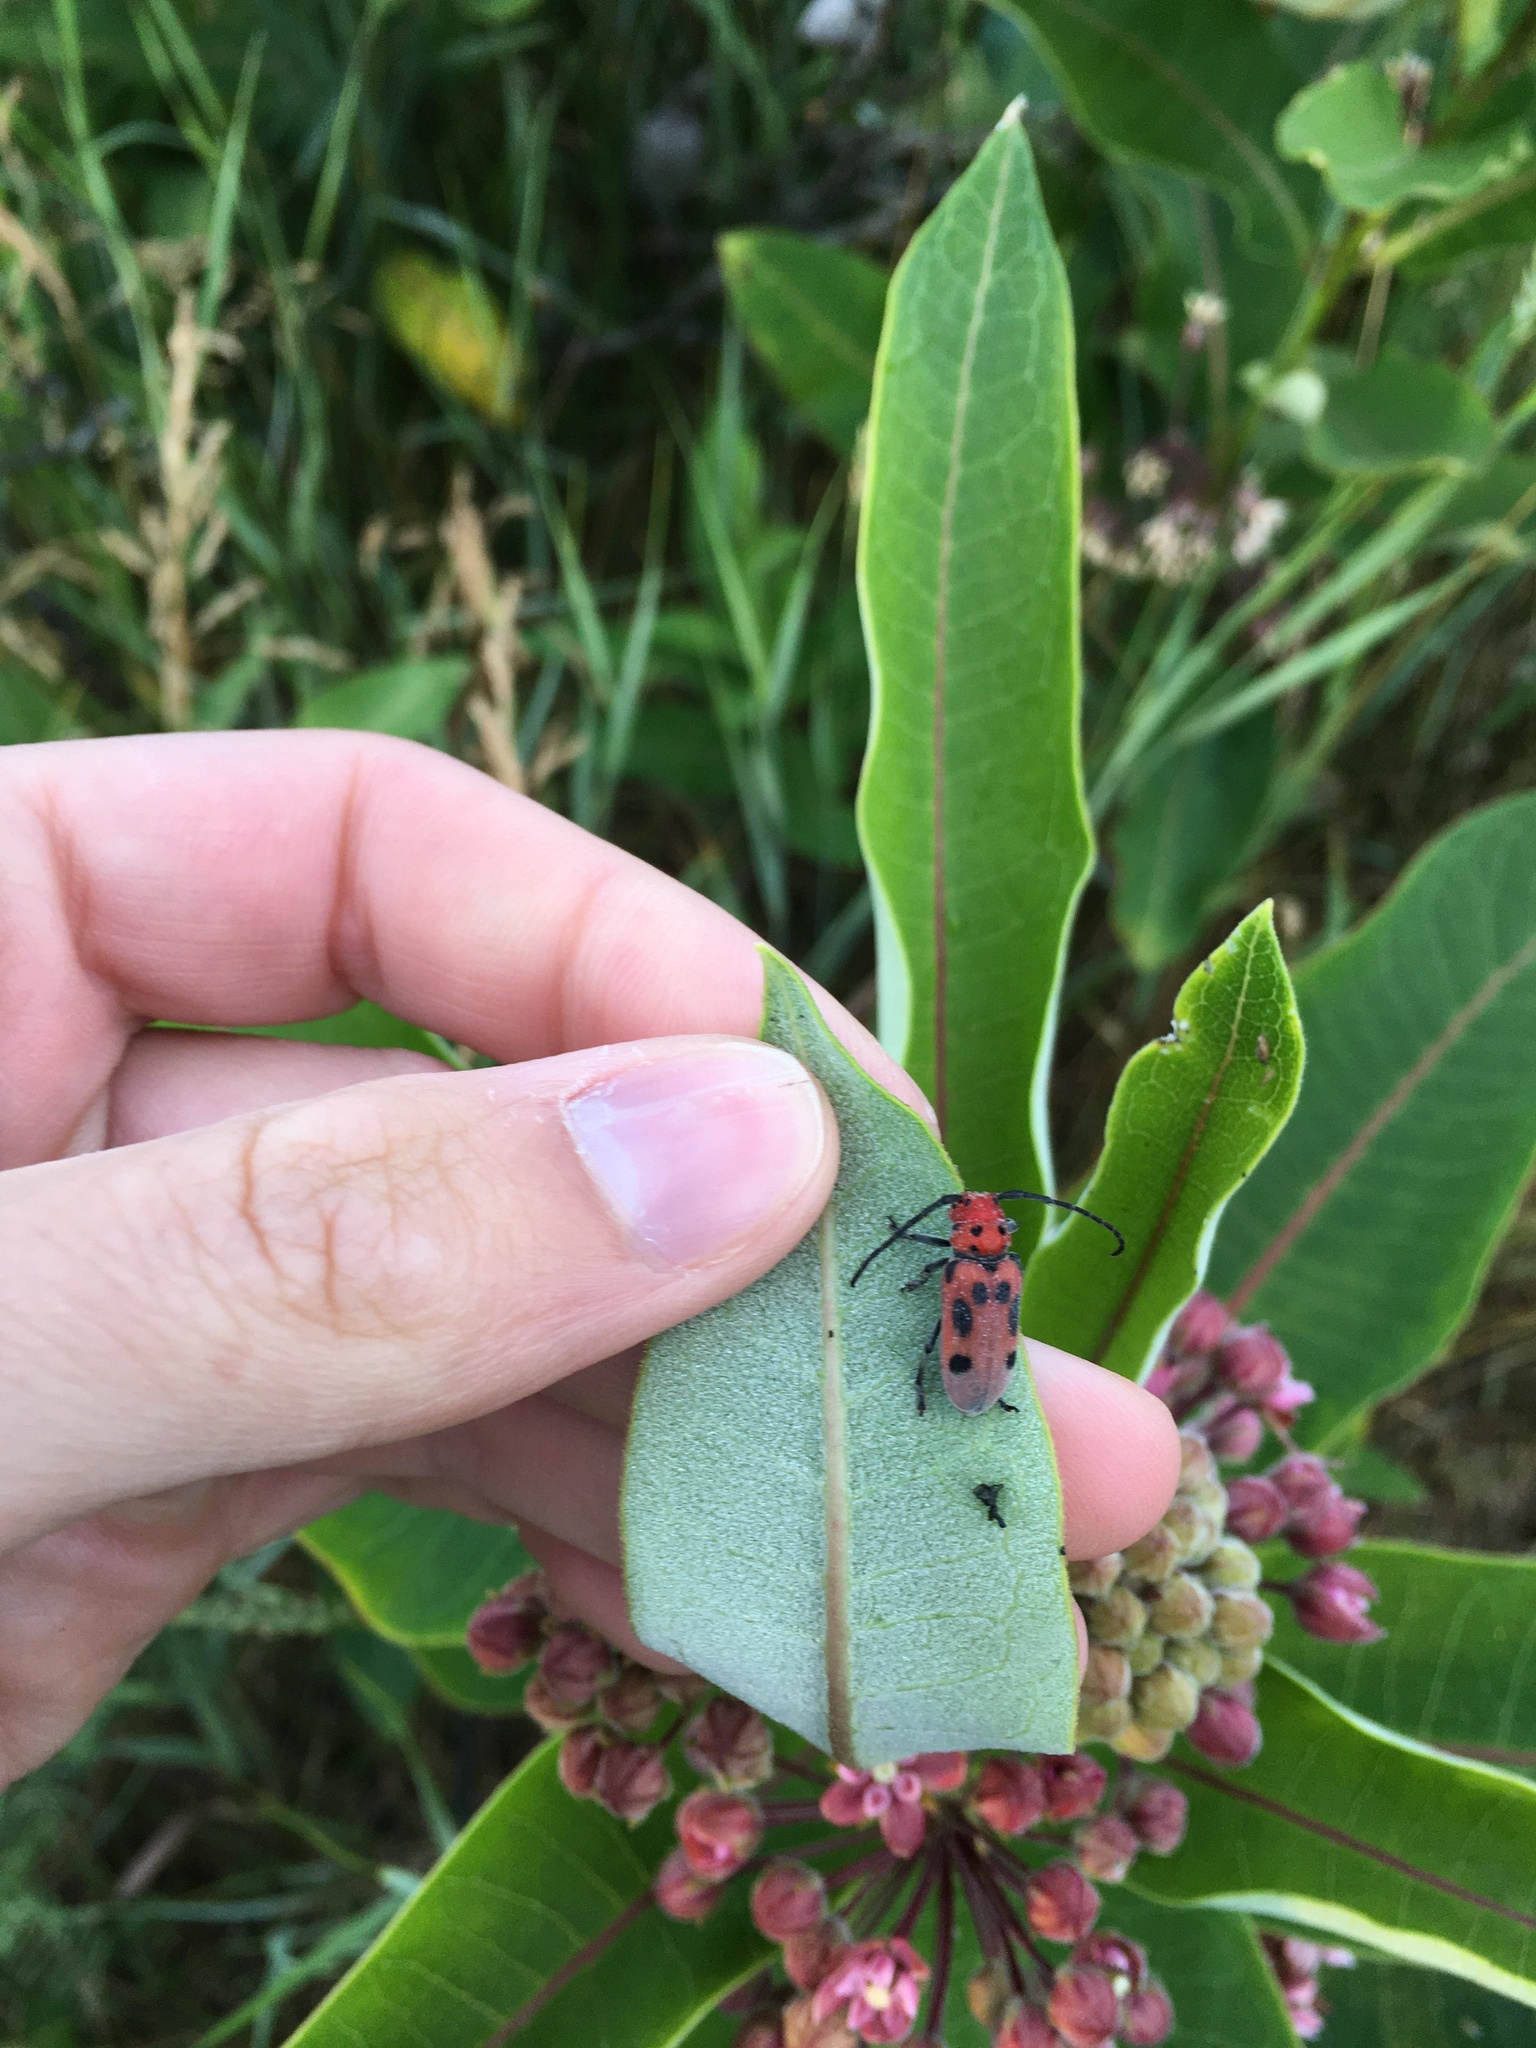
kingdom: Animalia
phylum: Arthropoda
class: Insecta
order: Coleoptera
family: Cerambycidae
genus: Tetraopes
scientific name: Tetraopes tetrophthalmus
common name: Red milkweed beetle
